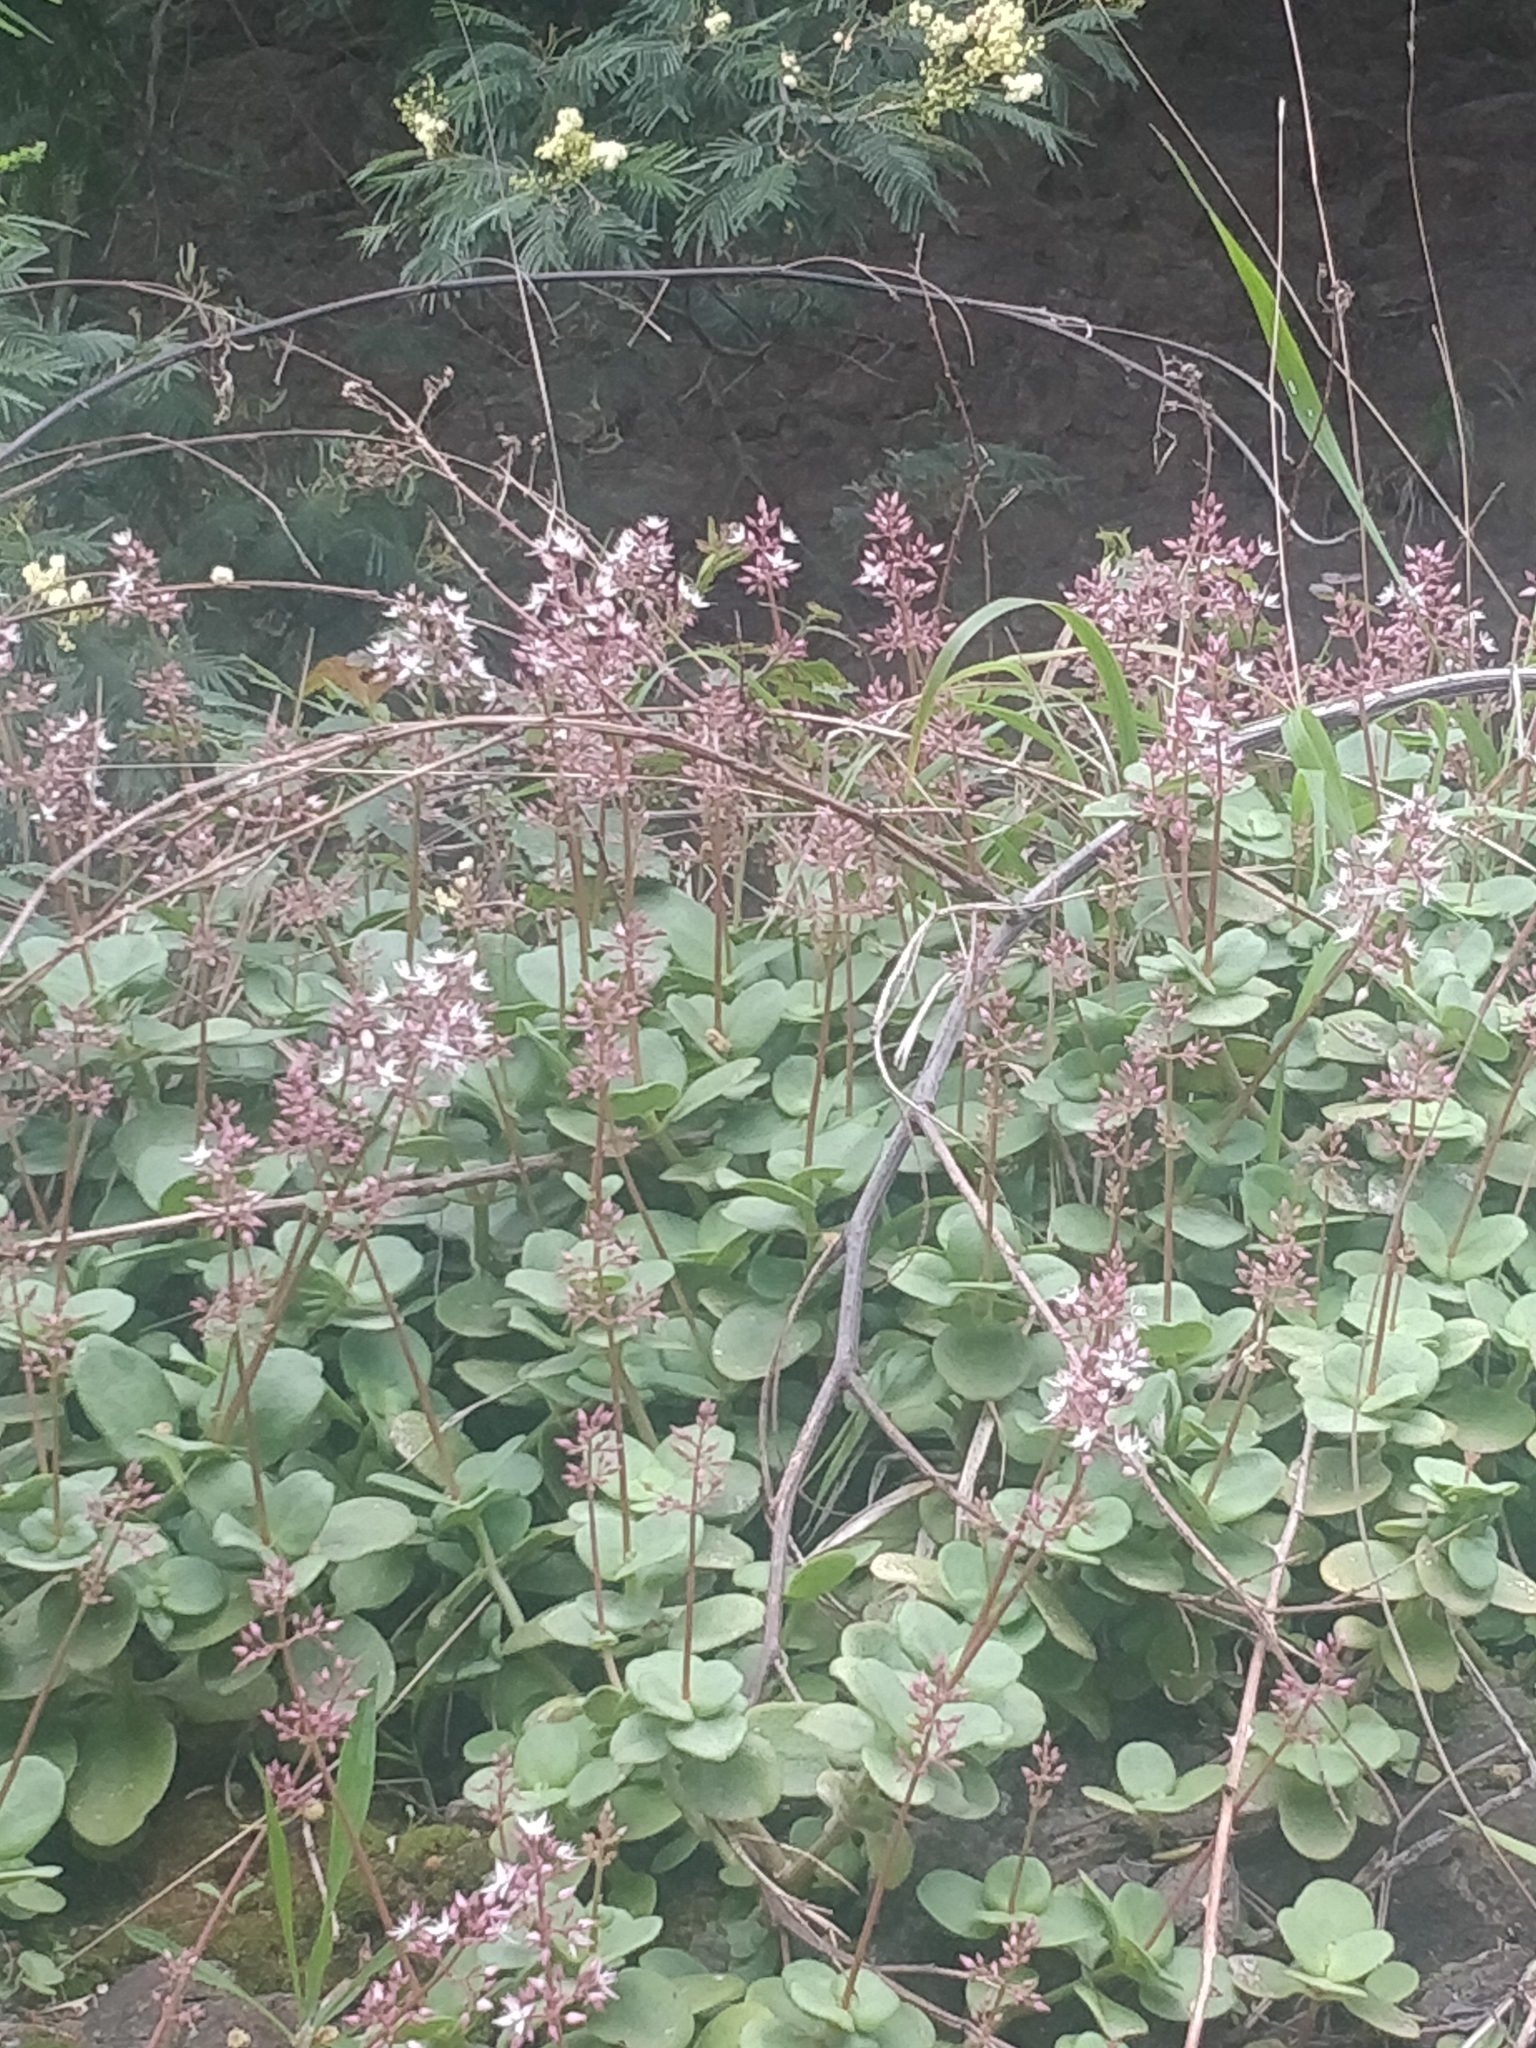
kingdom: Plantae
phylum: Tracheophyta
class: Magnoliopsida
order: Saxifragales
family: Crassulaceae
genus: Crassula
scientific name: Crassula multicava
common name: Cape province pygmyweed
